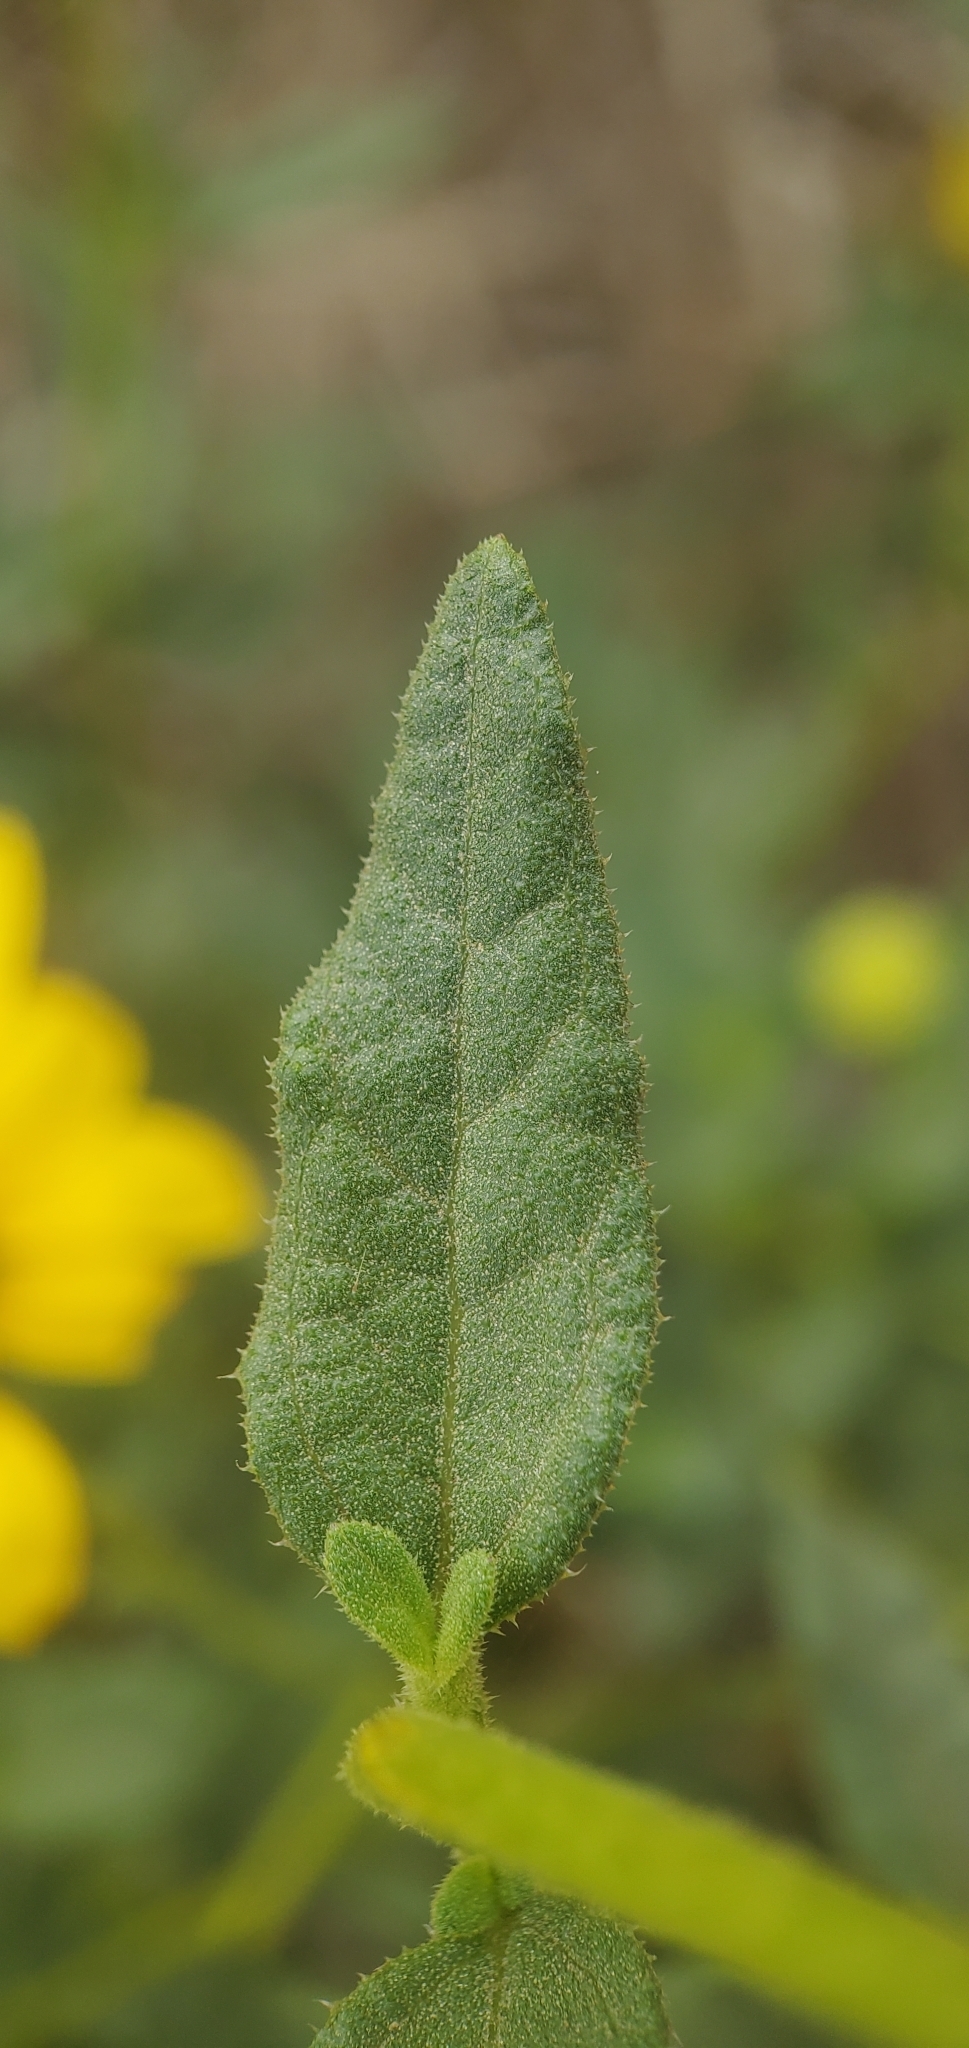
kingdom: Plantae
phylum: Tracheophyta
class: Magnoliopsida
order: Asterales
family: Asteraceae
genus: Helianthus
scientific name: Helianthus gracilentus
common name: Slender sunflower
